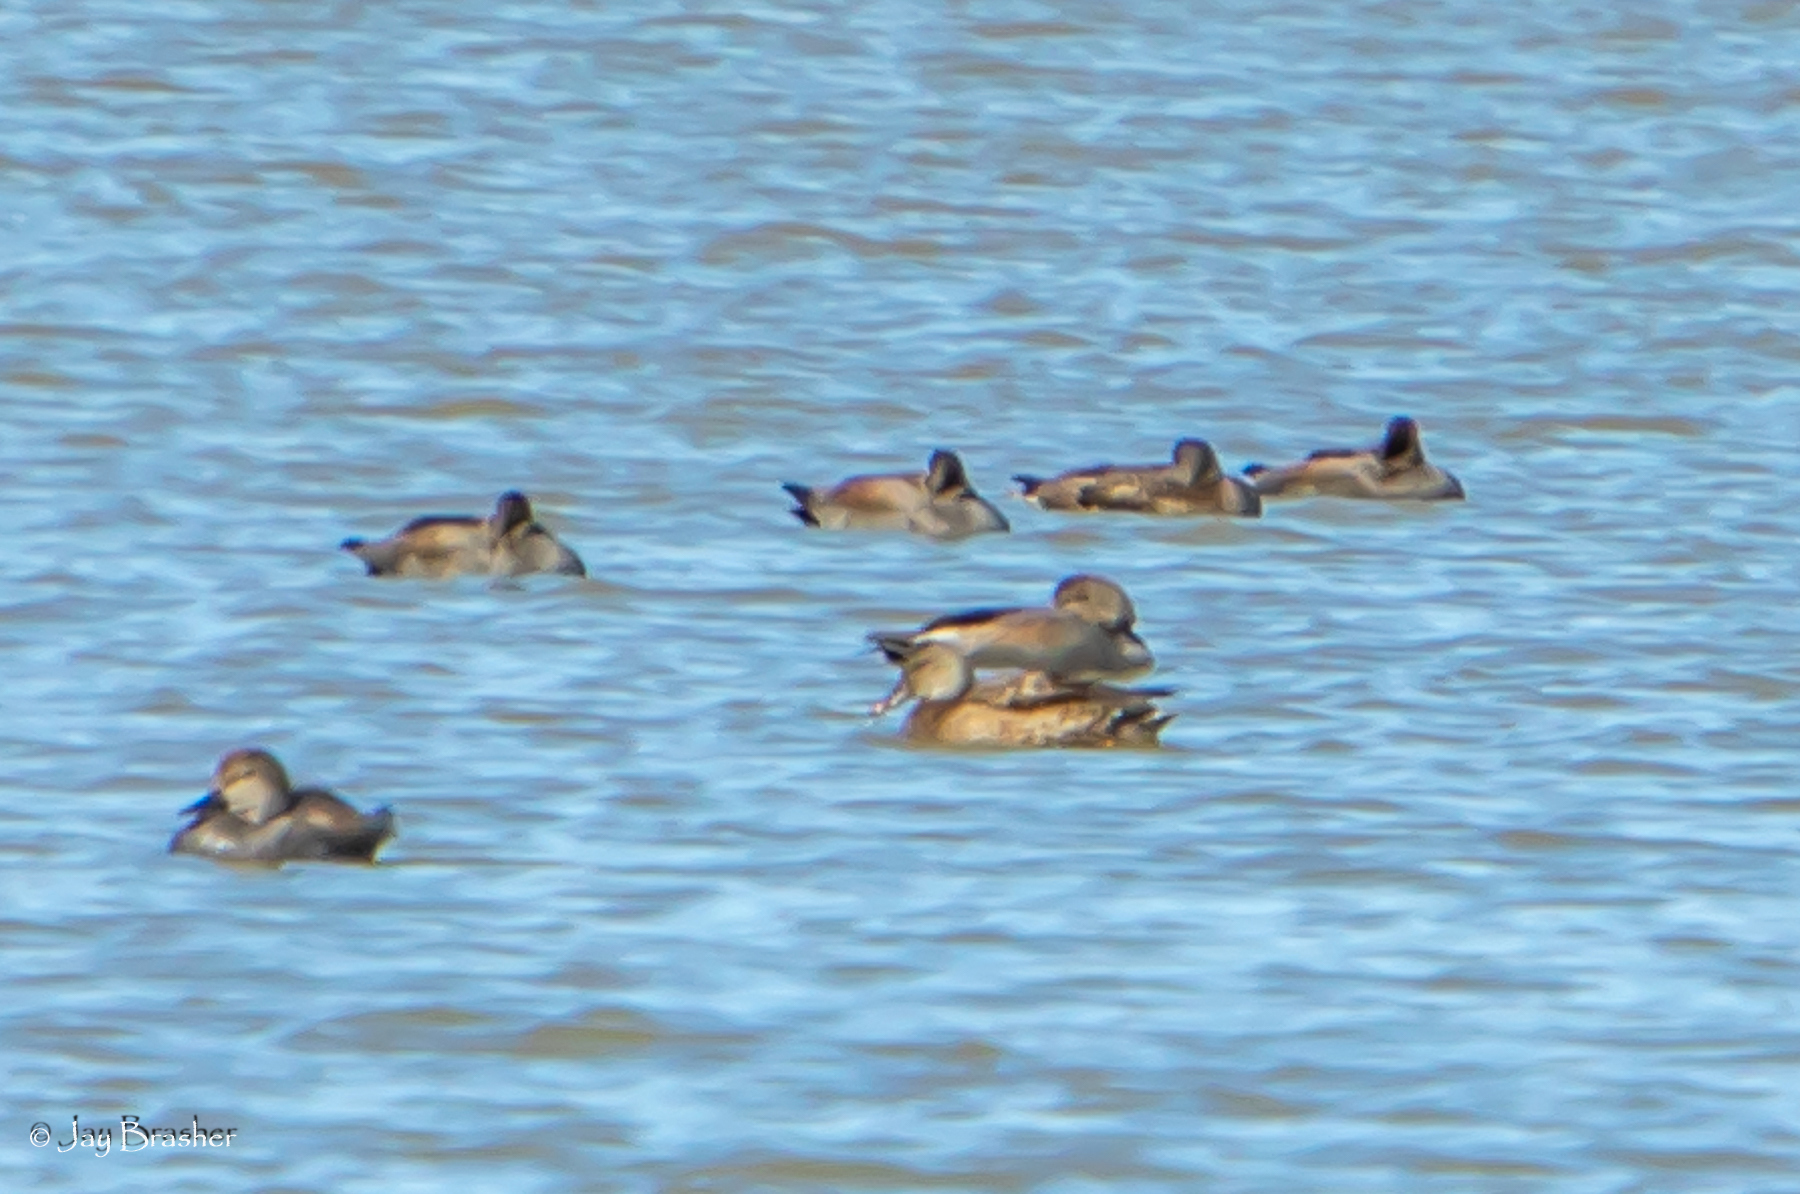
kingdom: Animalia
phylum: Chordata
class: Aves
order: Anseriformes
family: Anatidae
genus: Mareca
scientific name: Mareca strepera
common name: Gadwall
